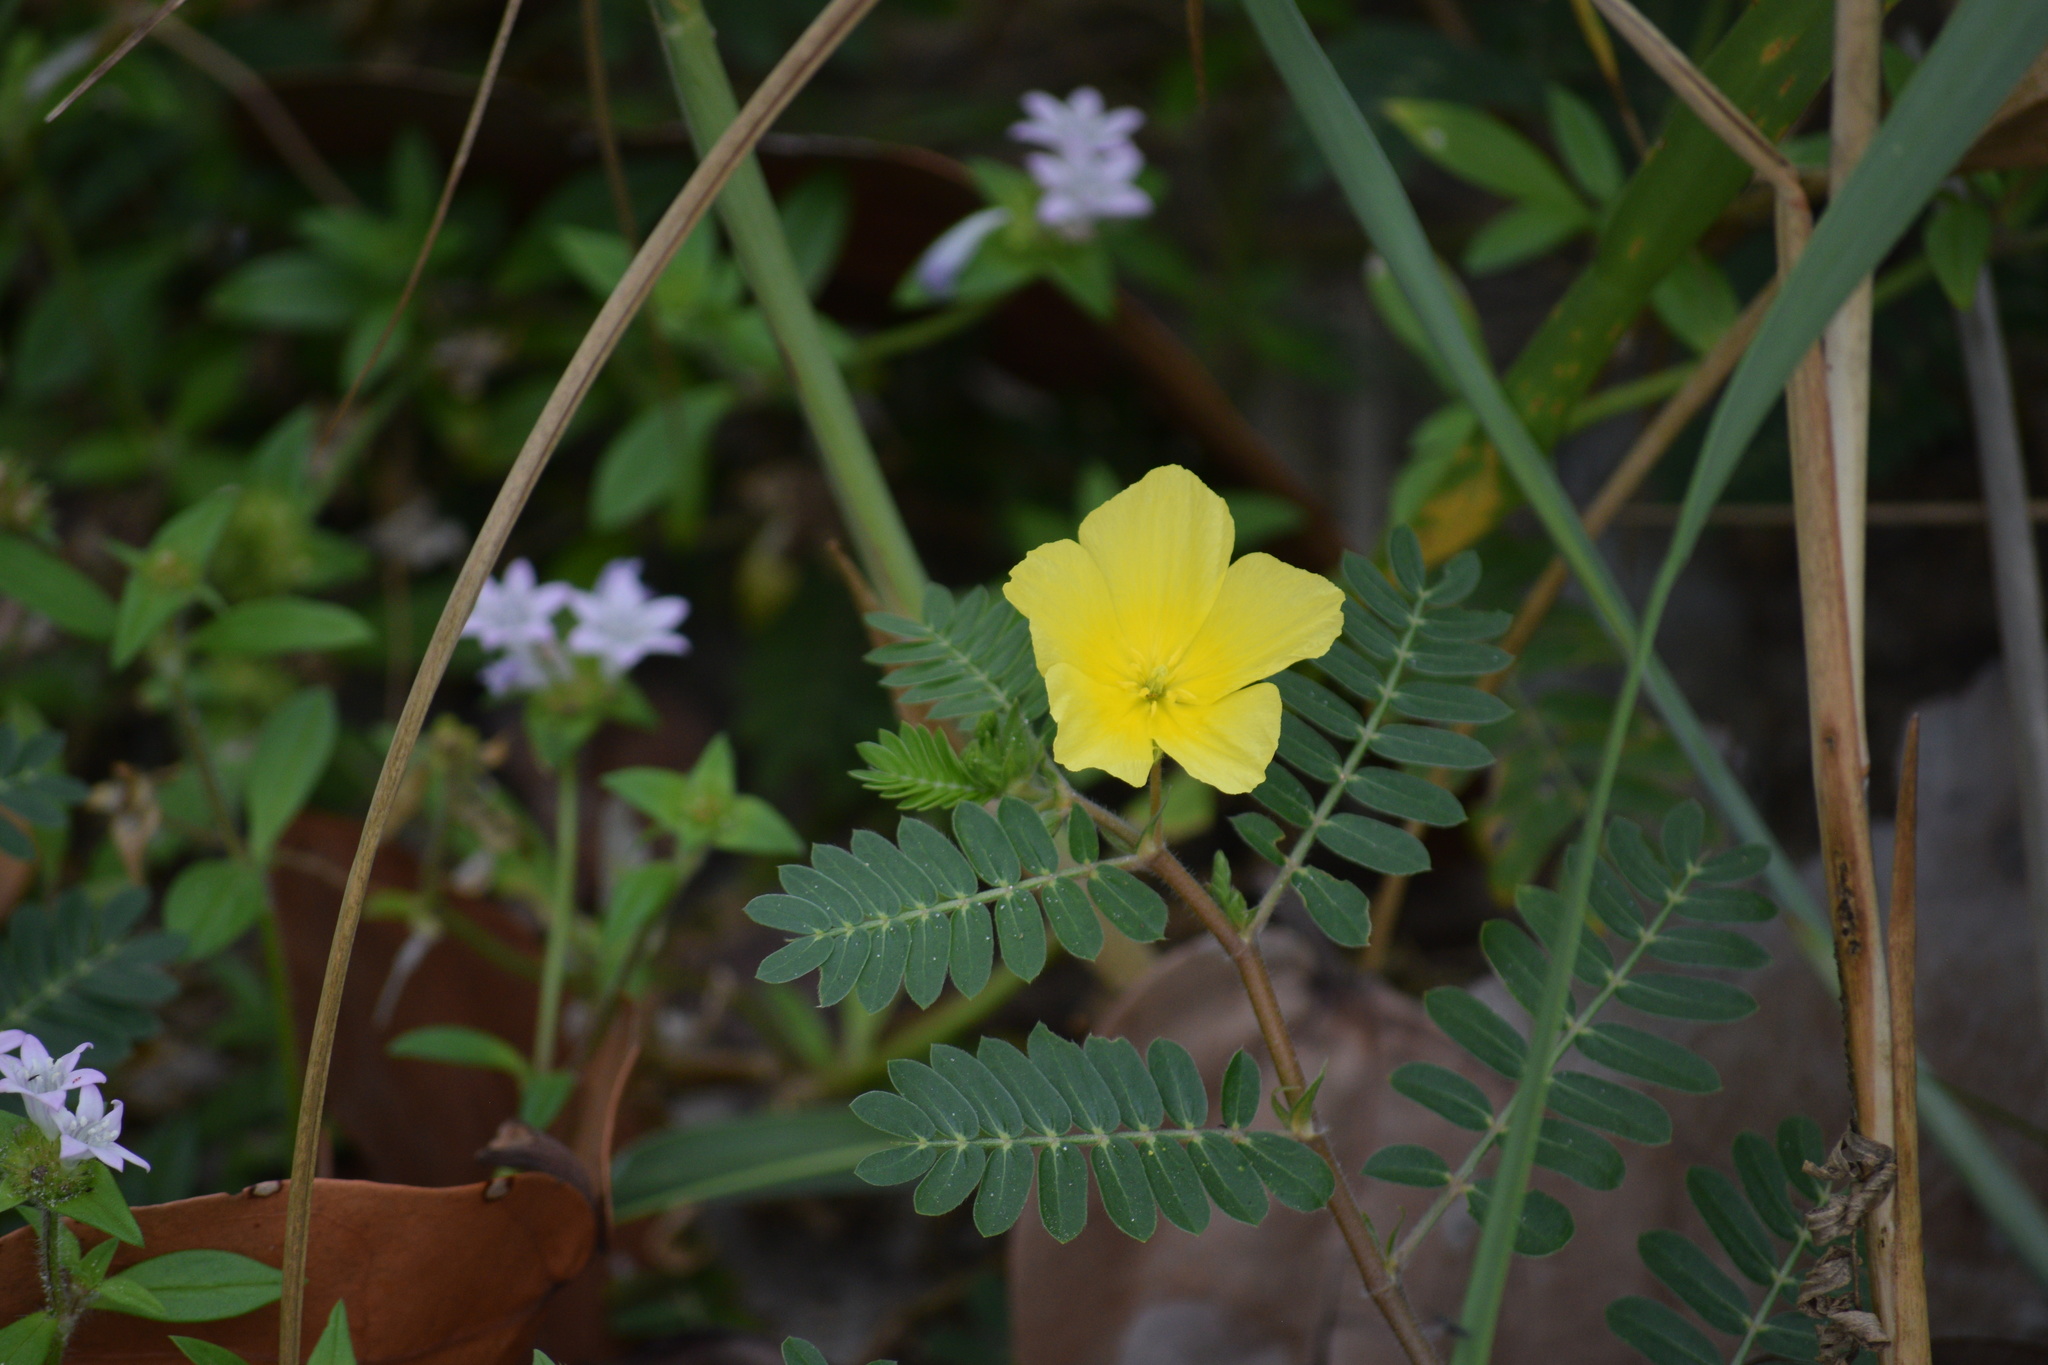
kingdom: Plantae
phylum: Tracheophyta
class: Magnoliopsida
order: Zygophyllales
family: Zygophyllaceae
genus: Tribulus
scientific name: Tribulus cistoides
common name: Jamaican feverplant
